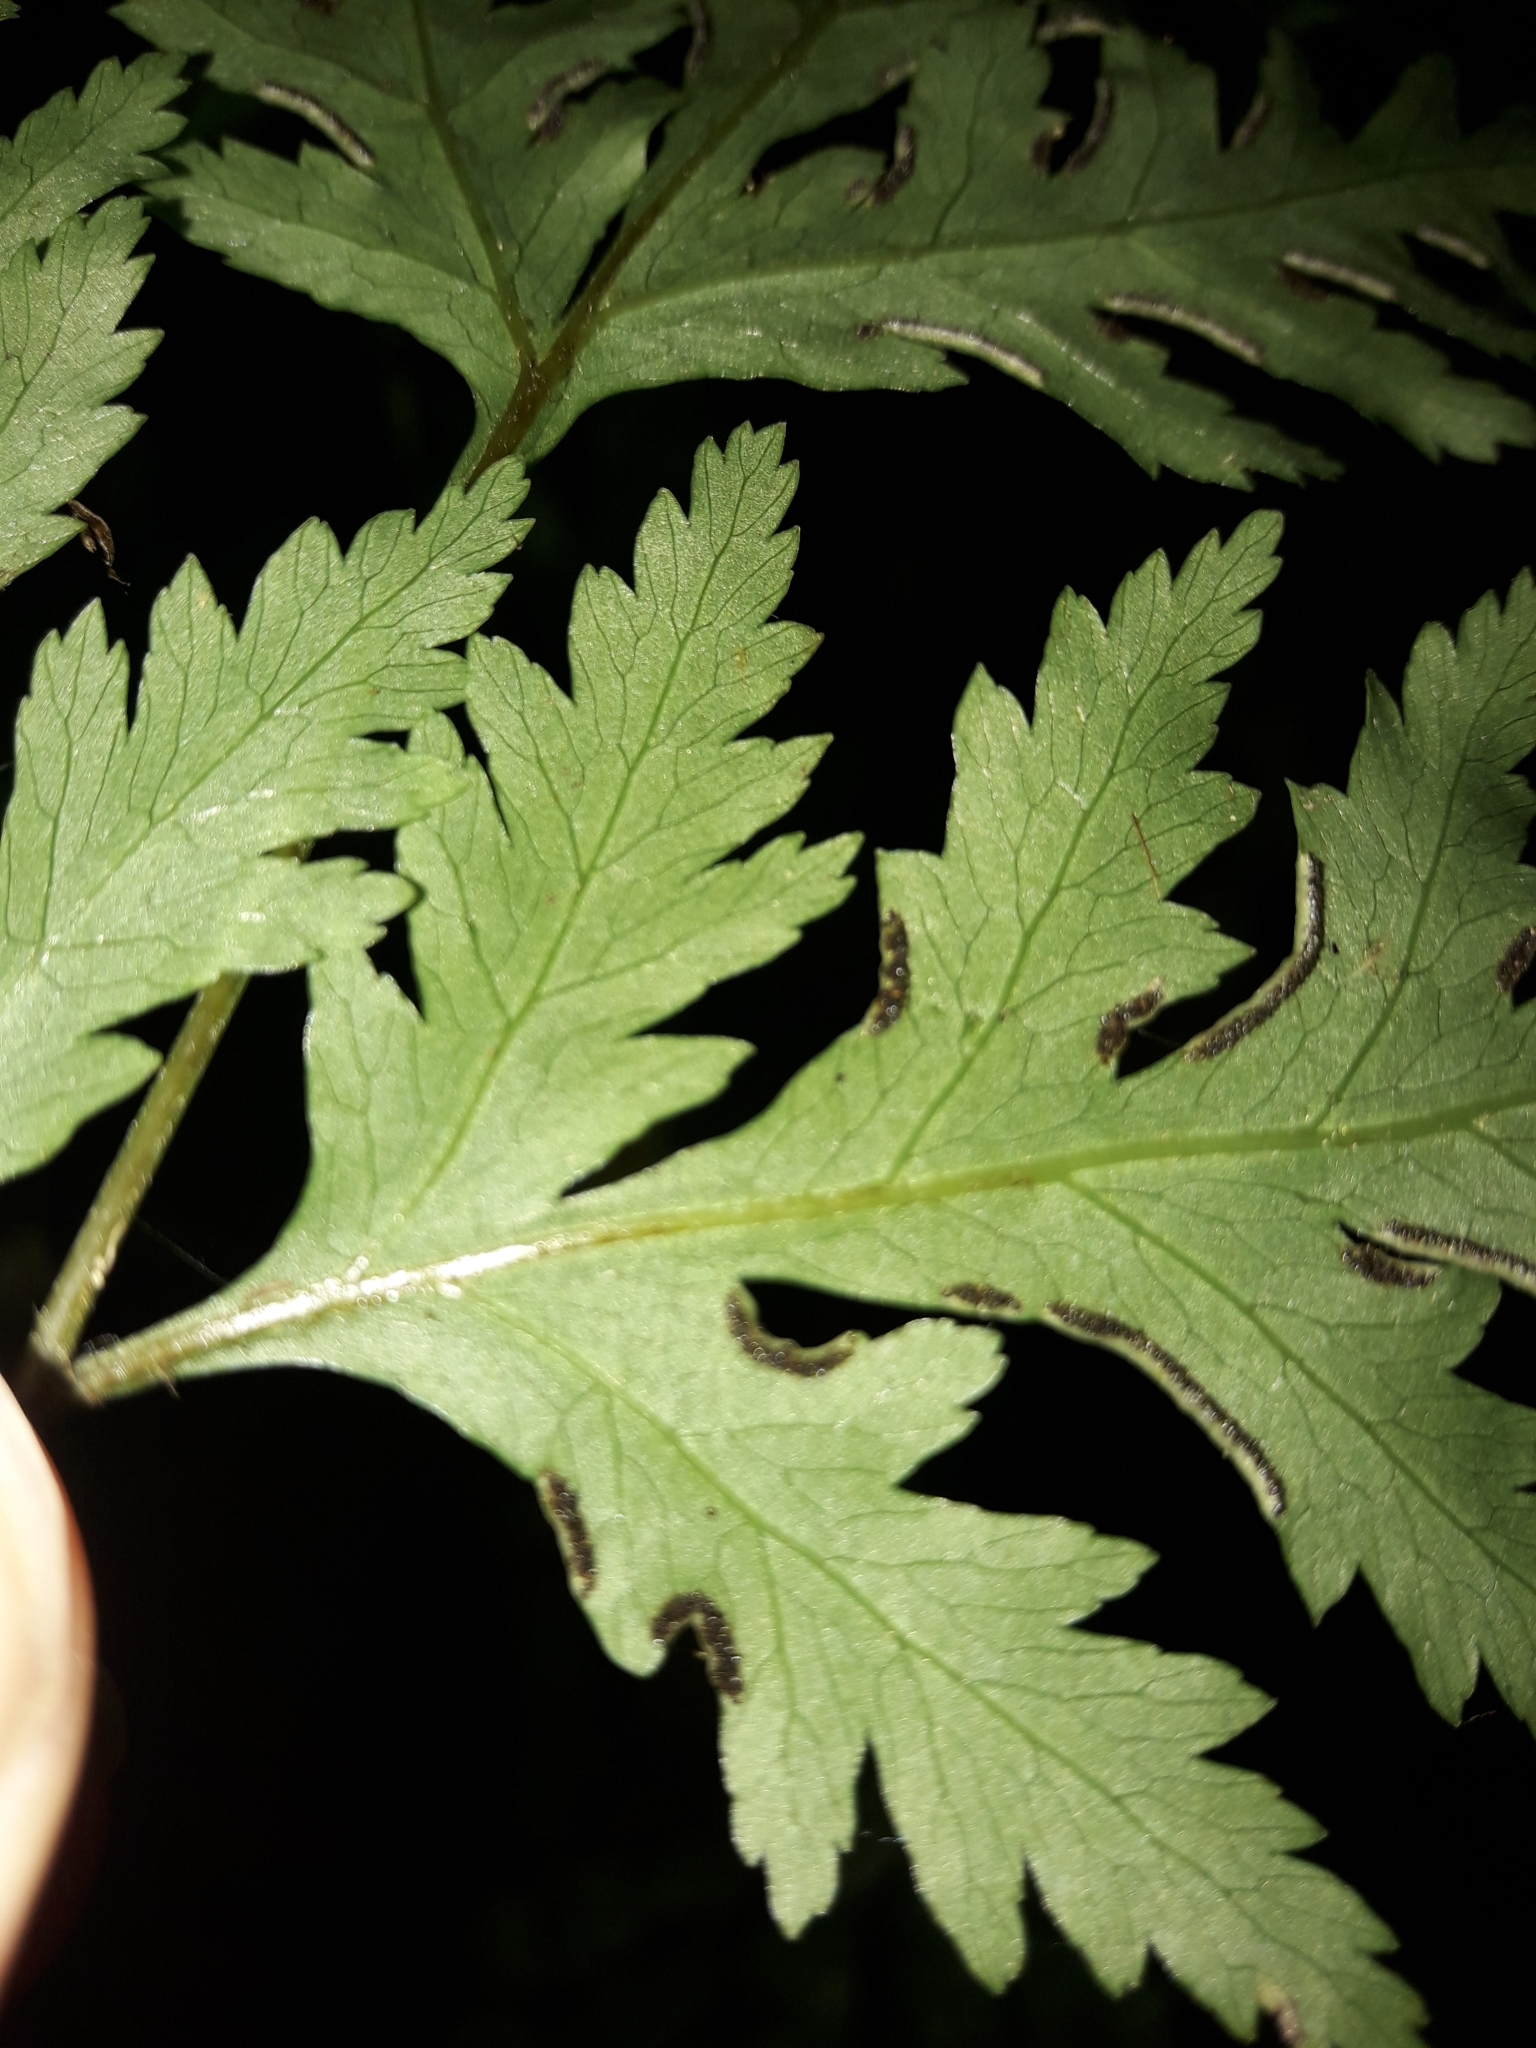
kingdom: Plantae
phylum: Tracheophyta
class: Polypodiopsida
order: Polypodiales
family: Pteridaceae
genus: Pteris
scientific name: Pteris macilenta
